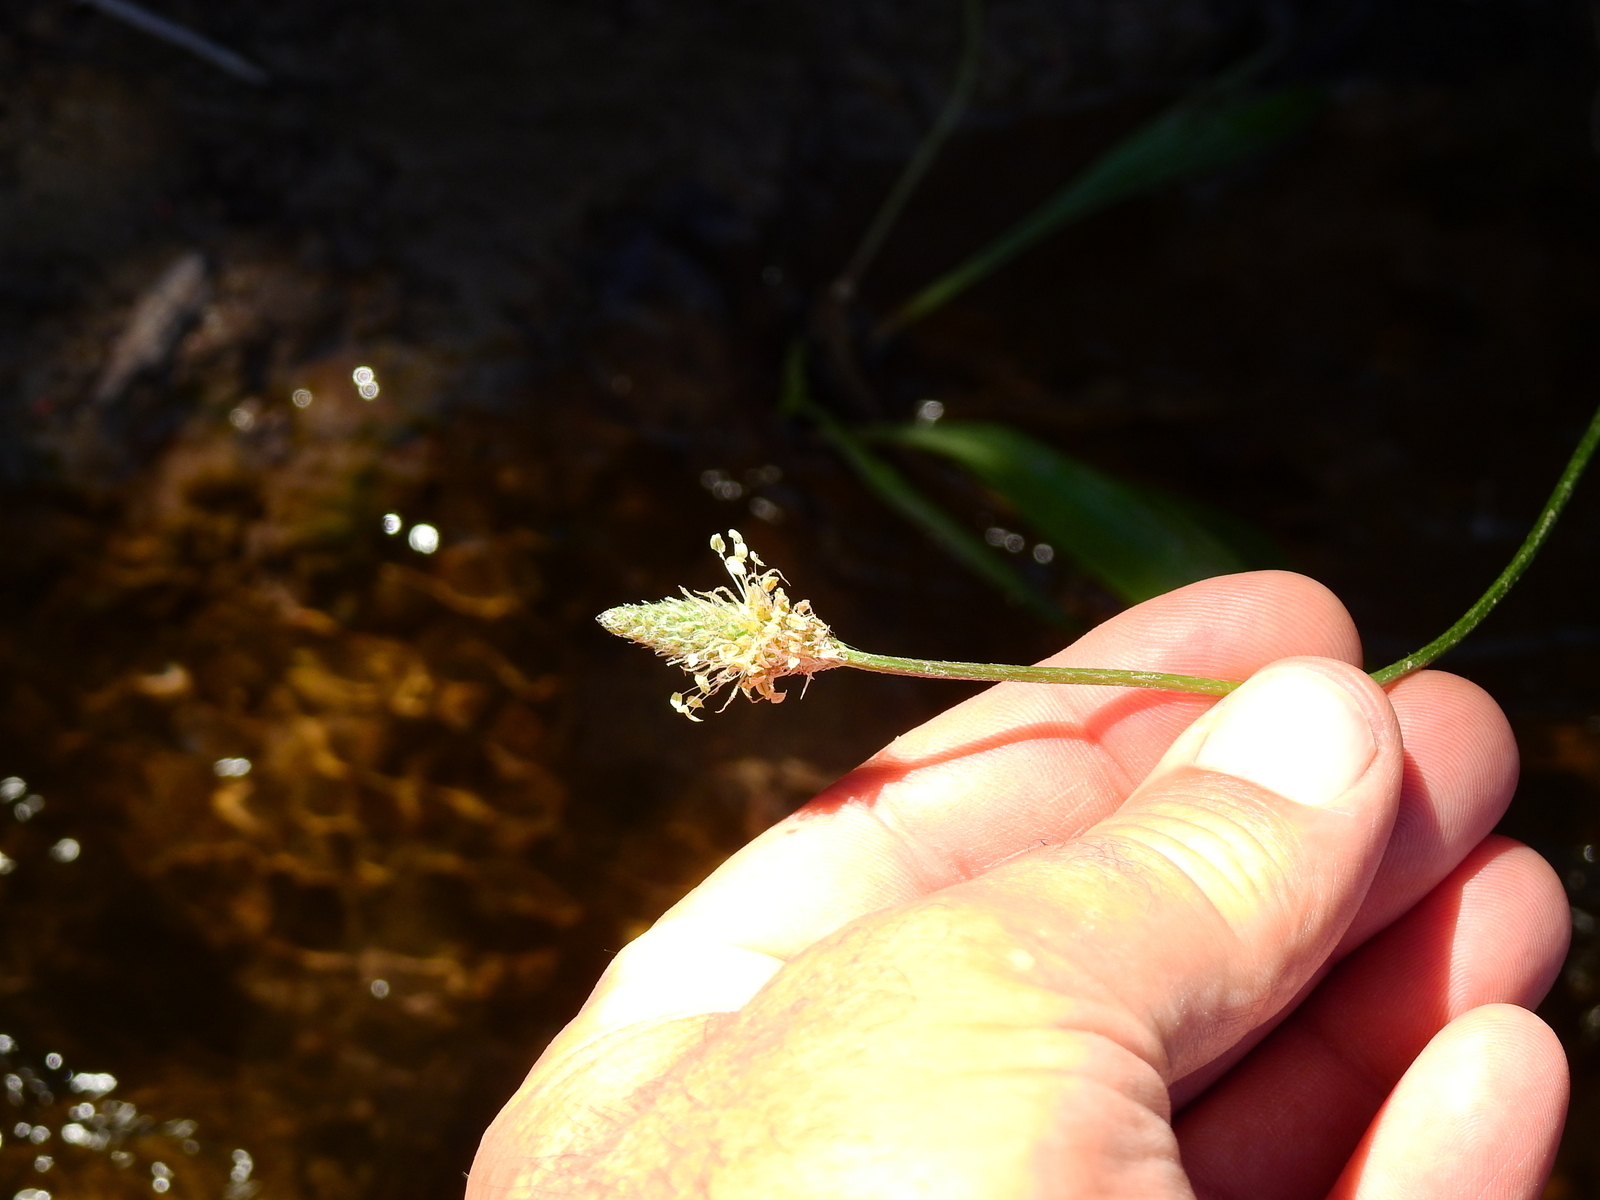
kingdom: Plantae
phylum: Tracheophyta
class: Magnoliopsida
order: Lamiales
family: Plantaginaceae
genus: Plantago
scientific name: Plantago lanceolata
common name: Ribwort plantain
